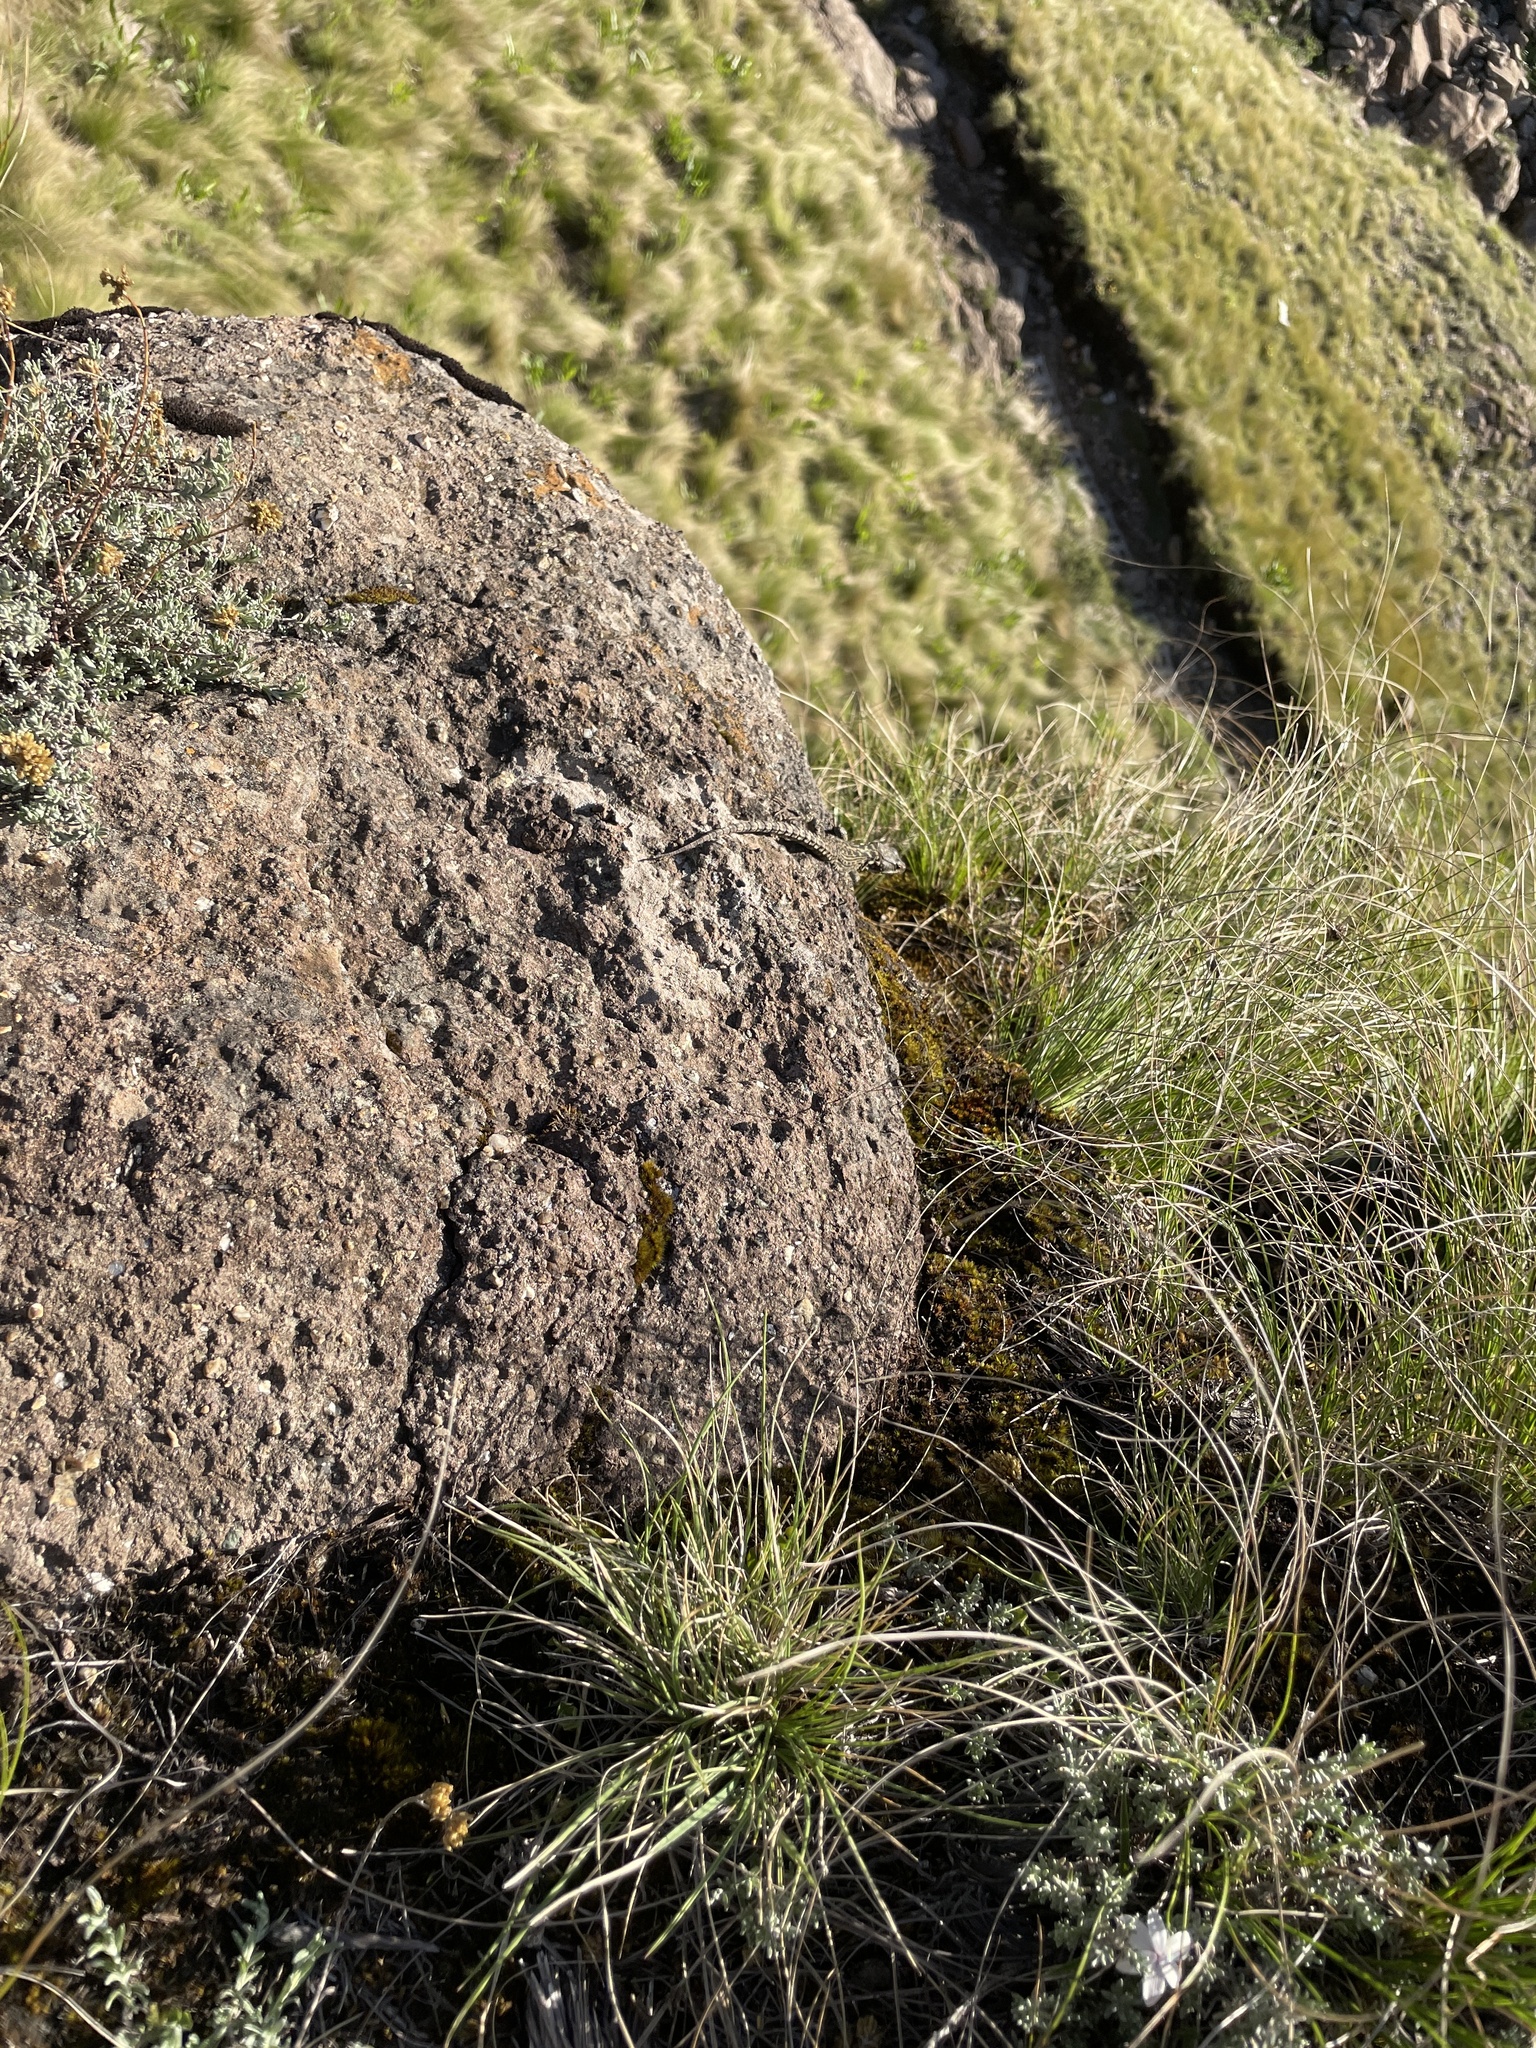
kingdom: Animalia
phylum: Chordata
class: Squamata
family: Cordylidae
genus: Pseudocordylus
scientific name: Pseudocordylus subviridis
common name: Drakensberg crag lizard
